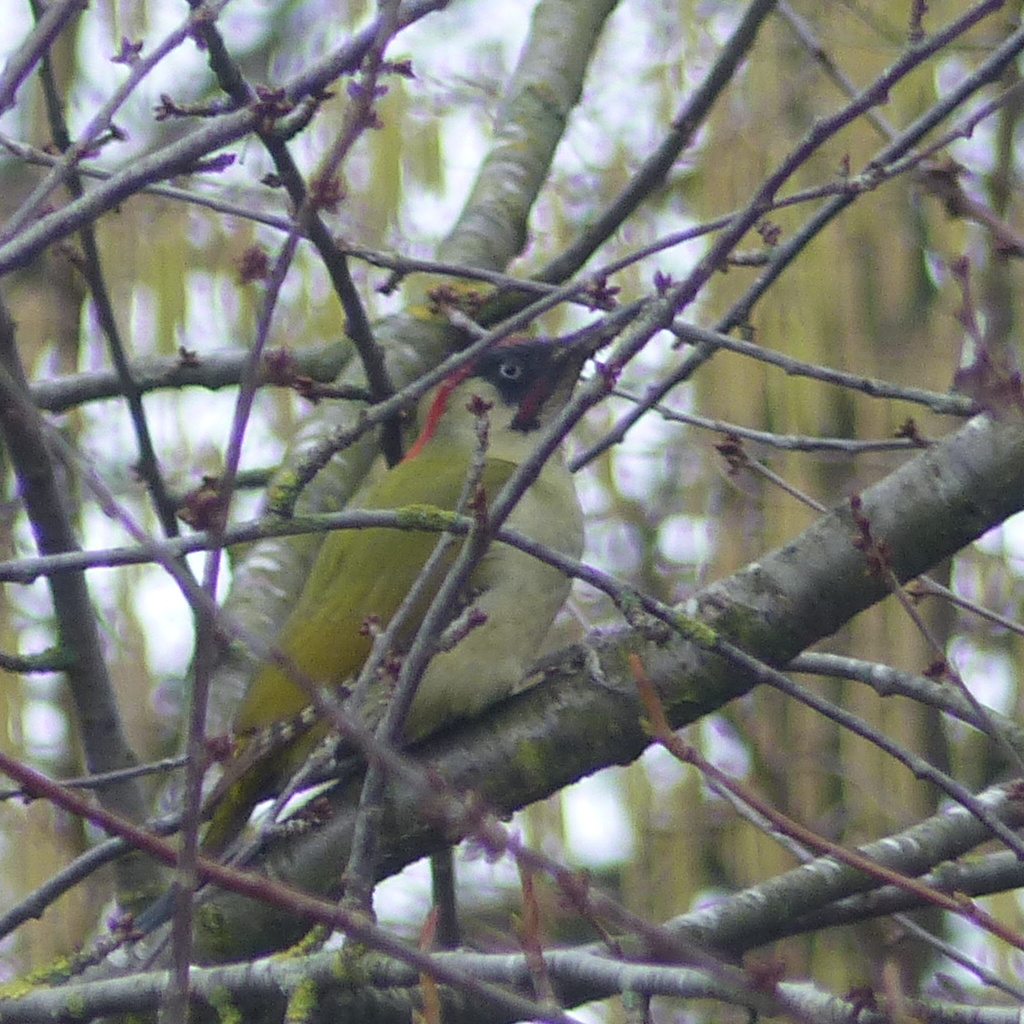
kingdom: Animalia
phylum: Chordata
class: Aves
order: Piciformes
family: Picidae
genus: Picus
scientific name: Picus viridis
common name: European green woodpecker
